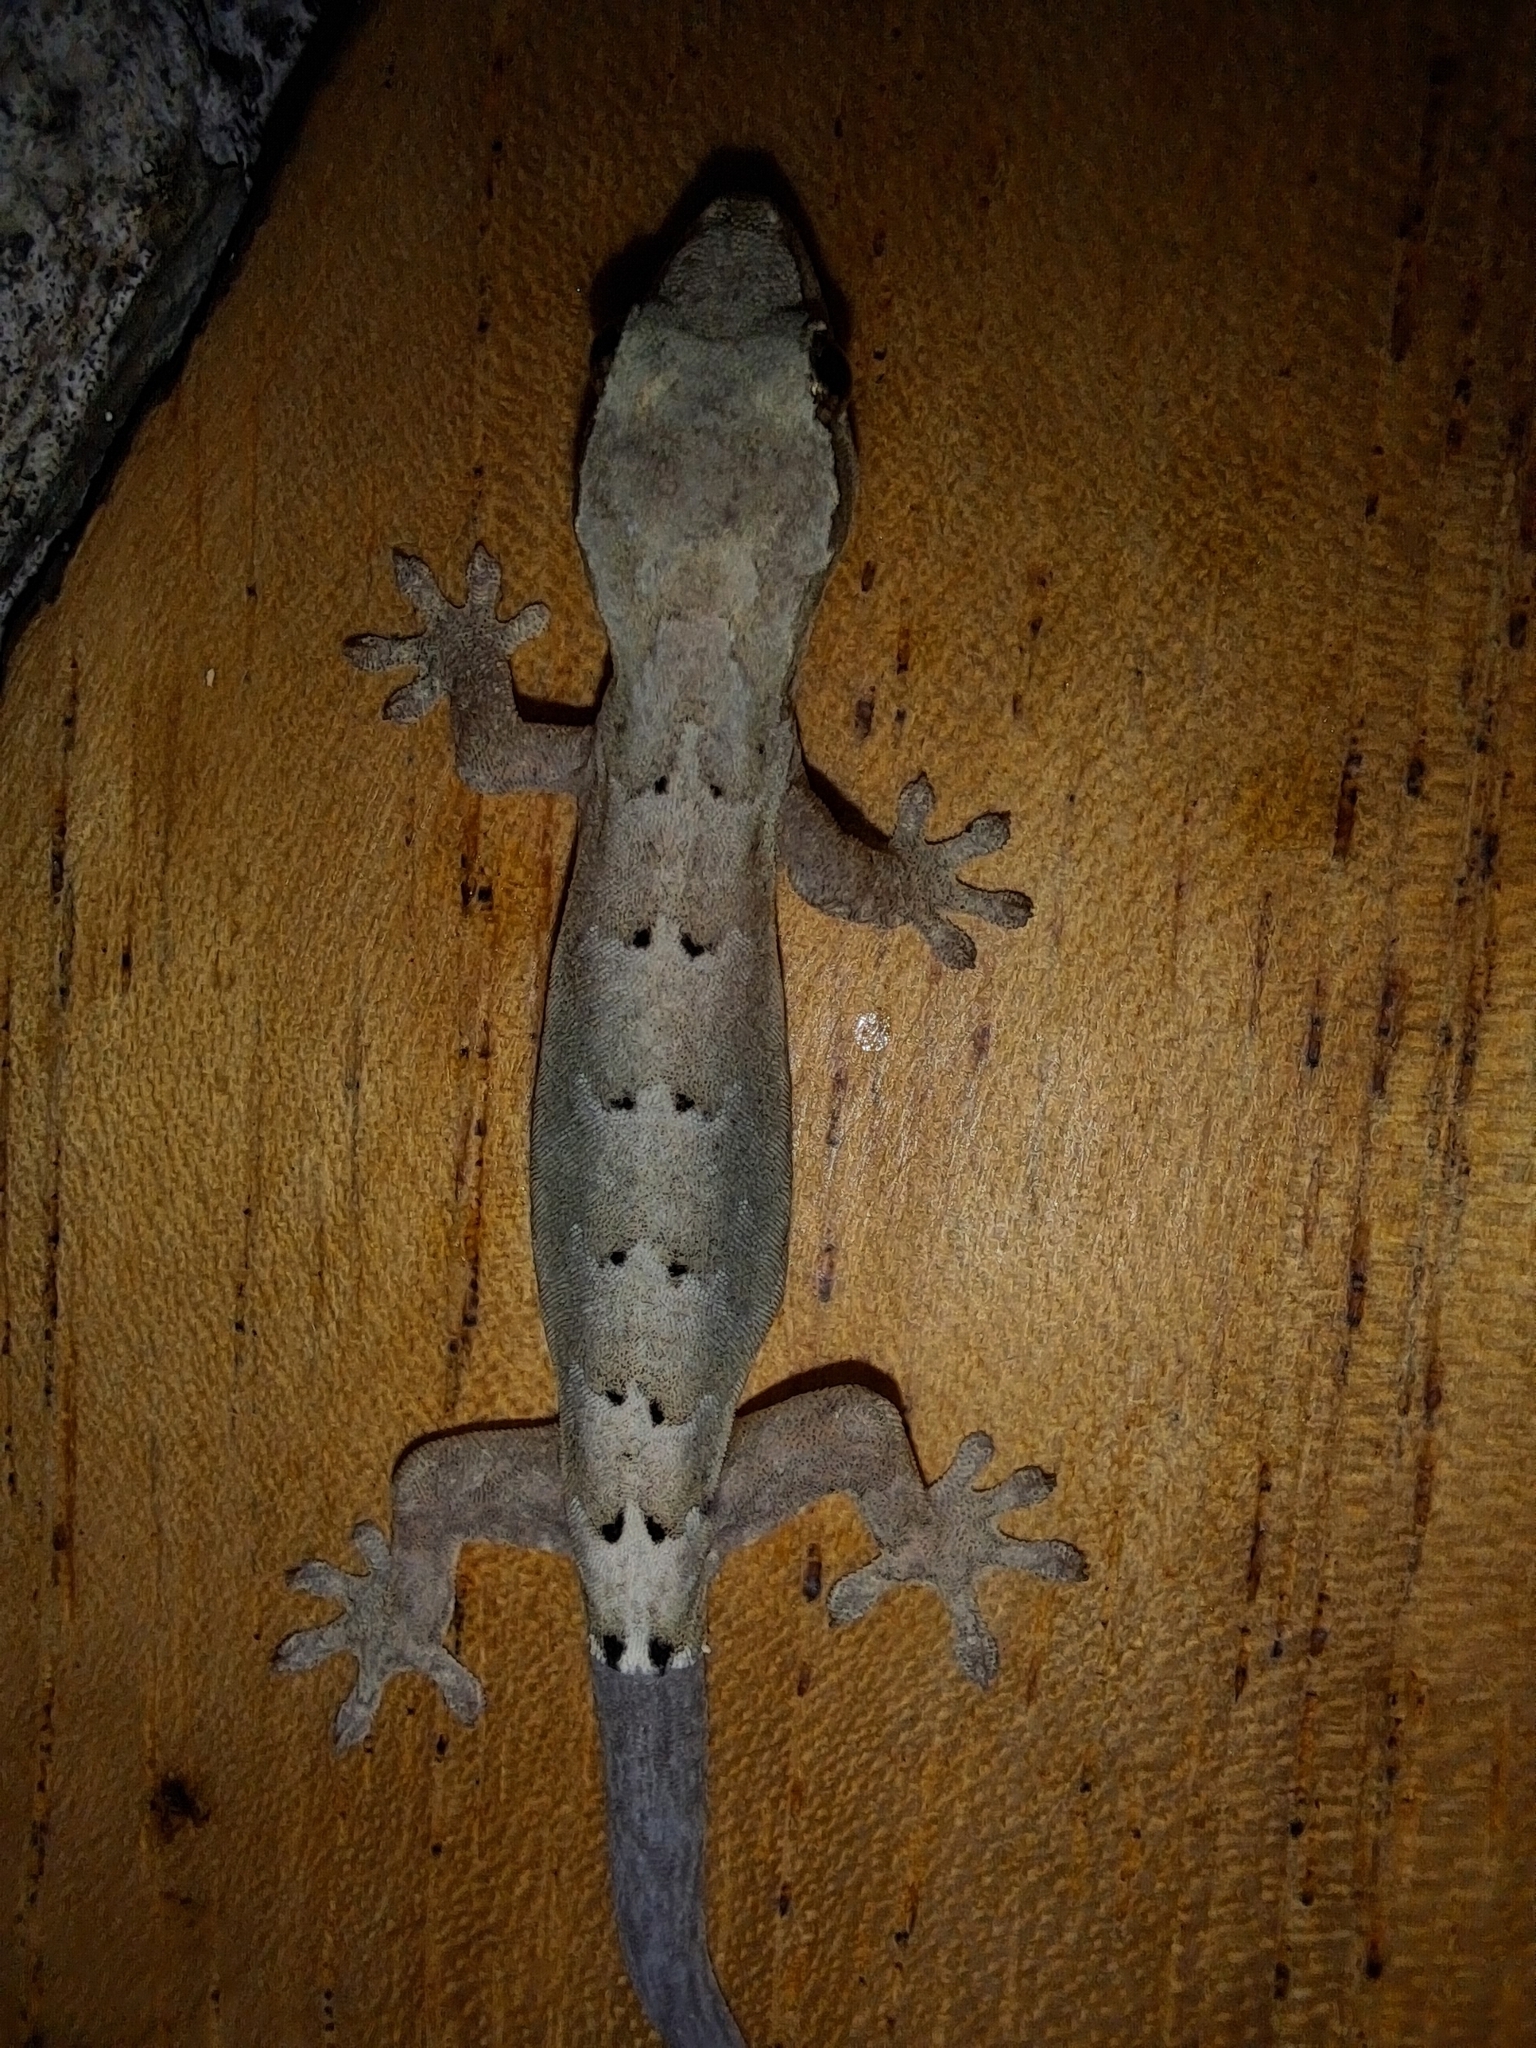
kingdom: Animalia
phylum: Chordata
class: Squamata
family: Gekkonidae
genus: Lepidodactylus
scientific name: Lepidodactylus lugubris
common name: Mourning gecko
